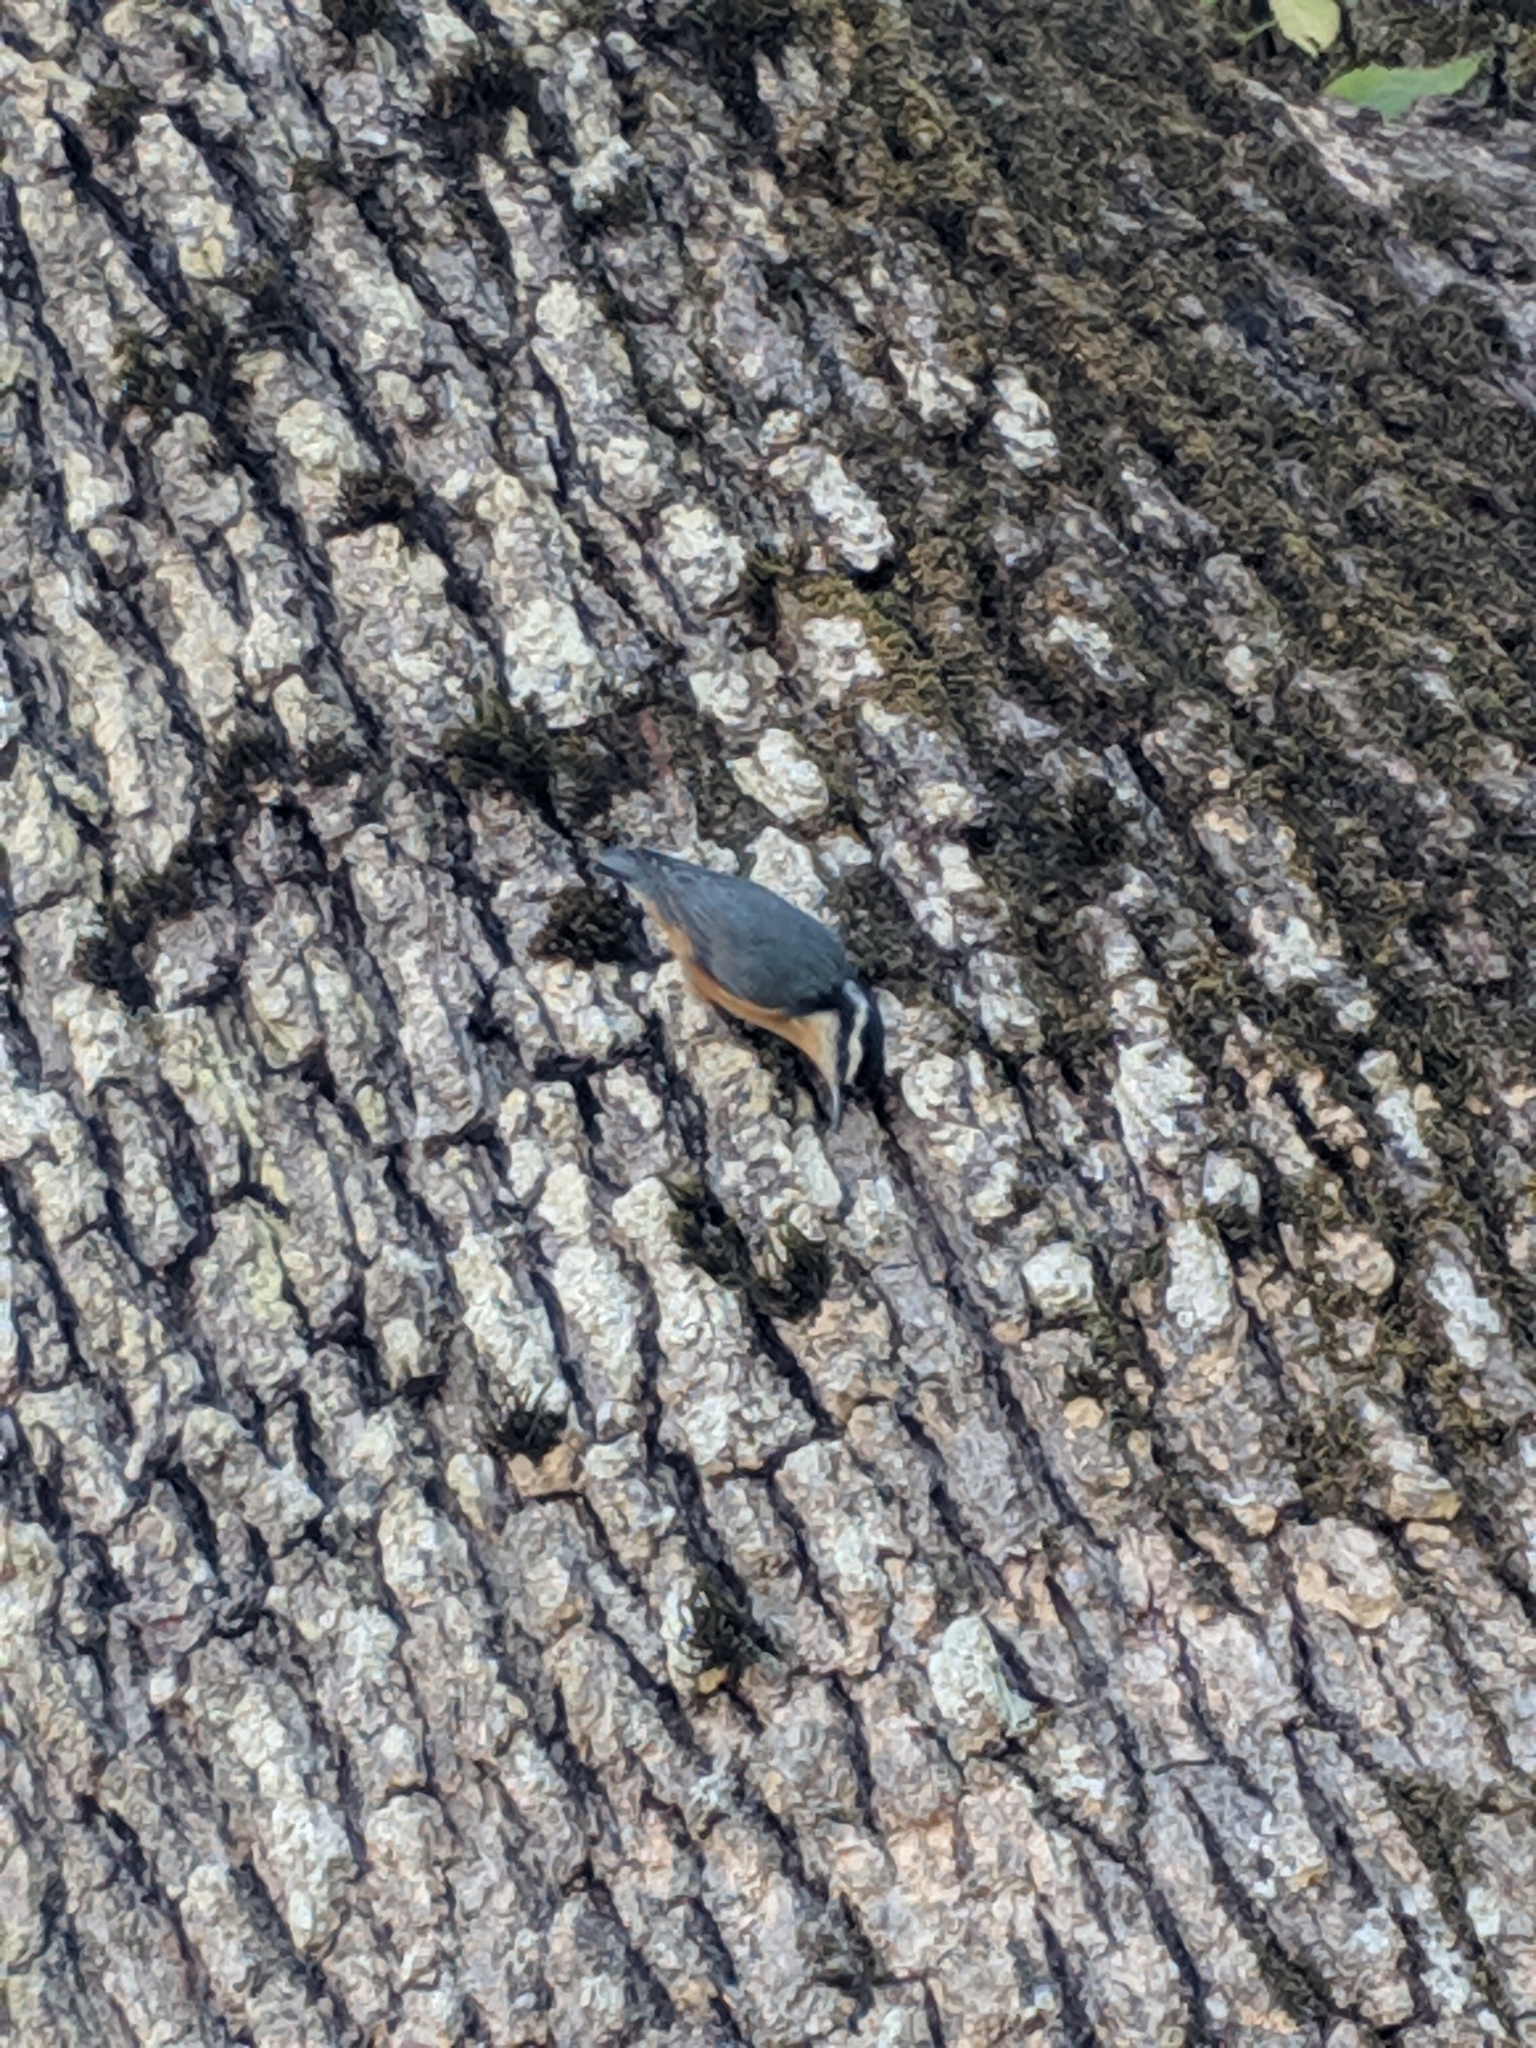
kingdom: Animalia
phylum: Chordata
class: Aves
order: Passeriformes
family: Sittidae
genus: Sitta
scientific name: Sitta canadensis
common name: Red-breasted nuthatch
